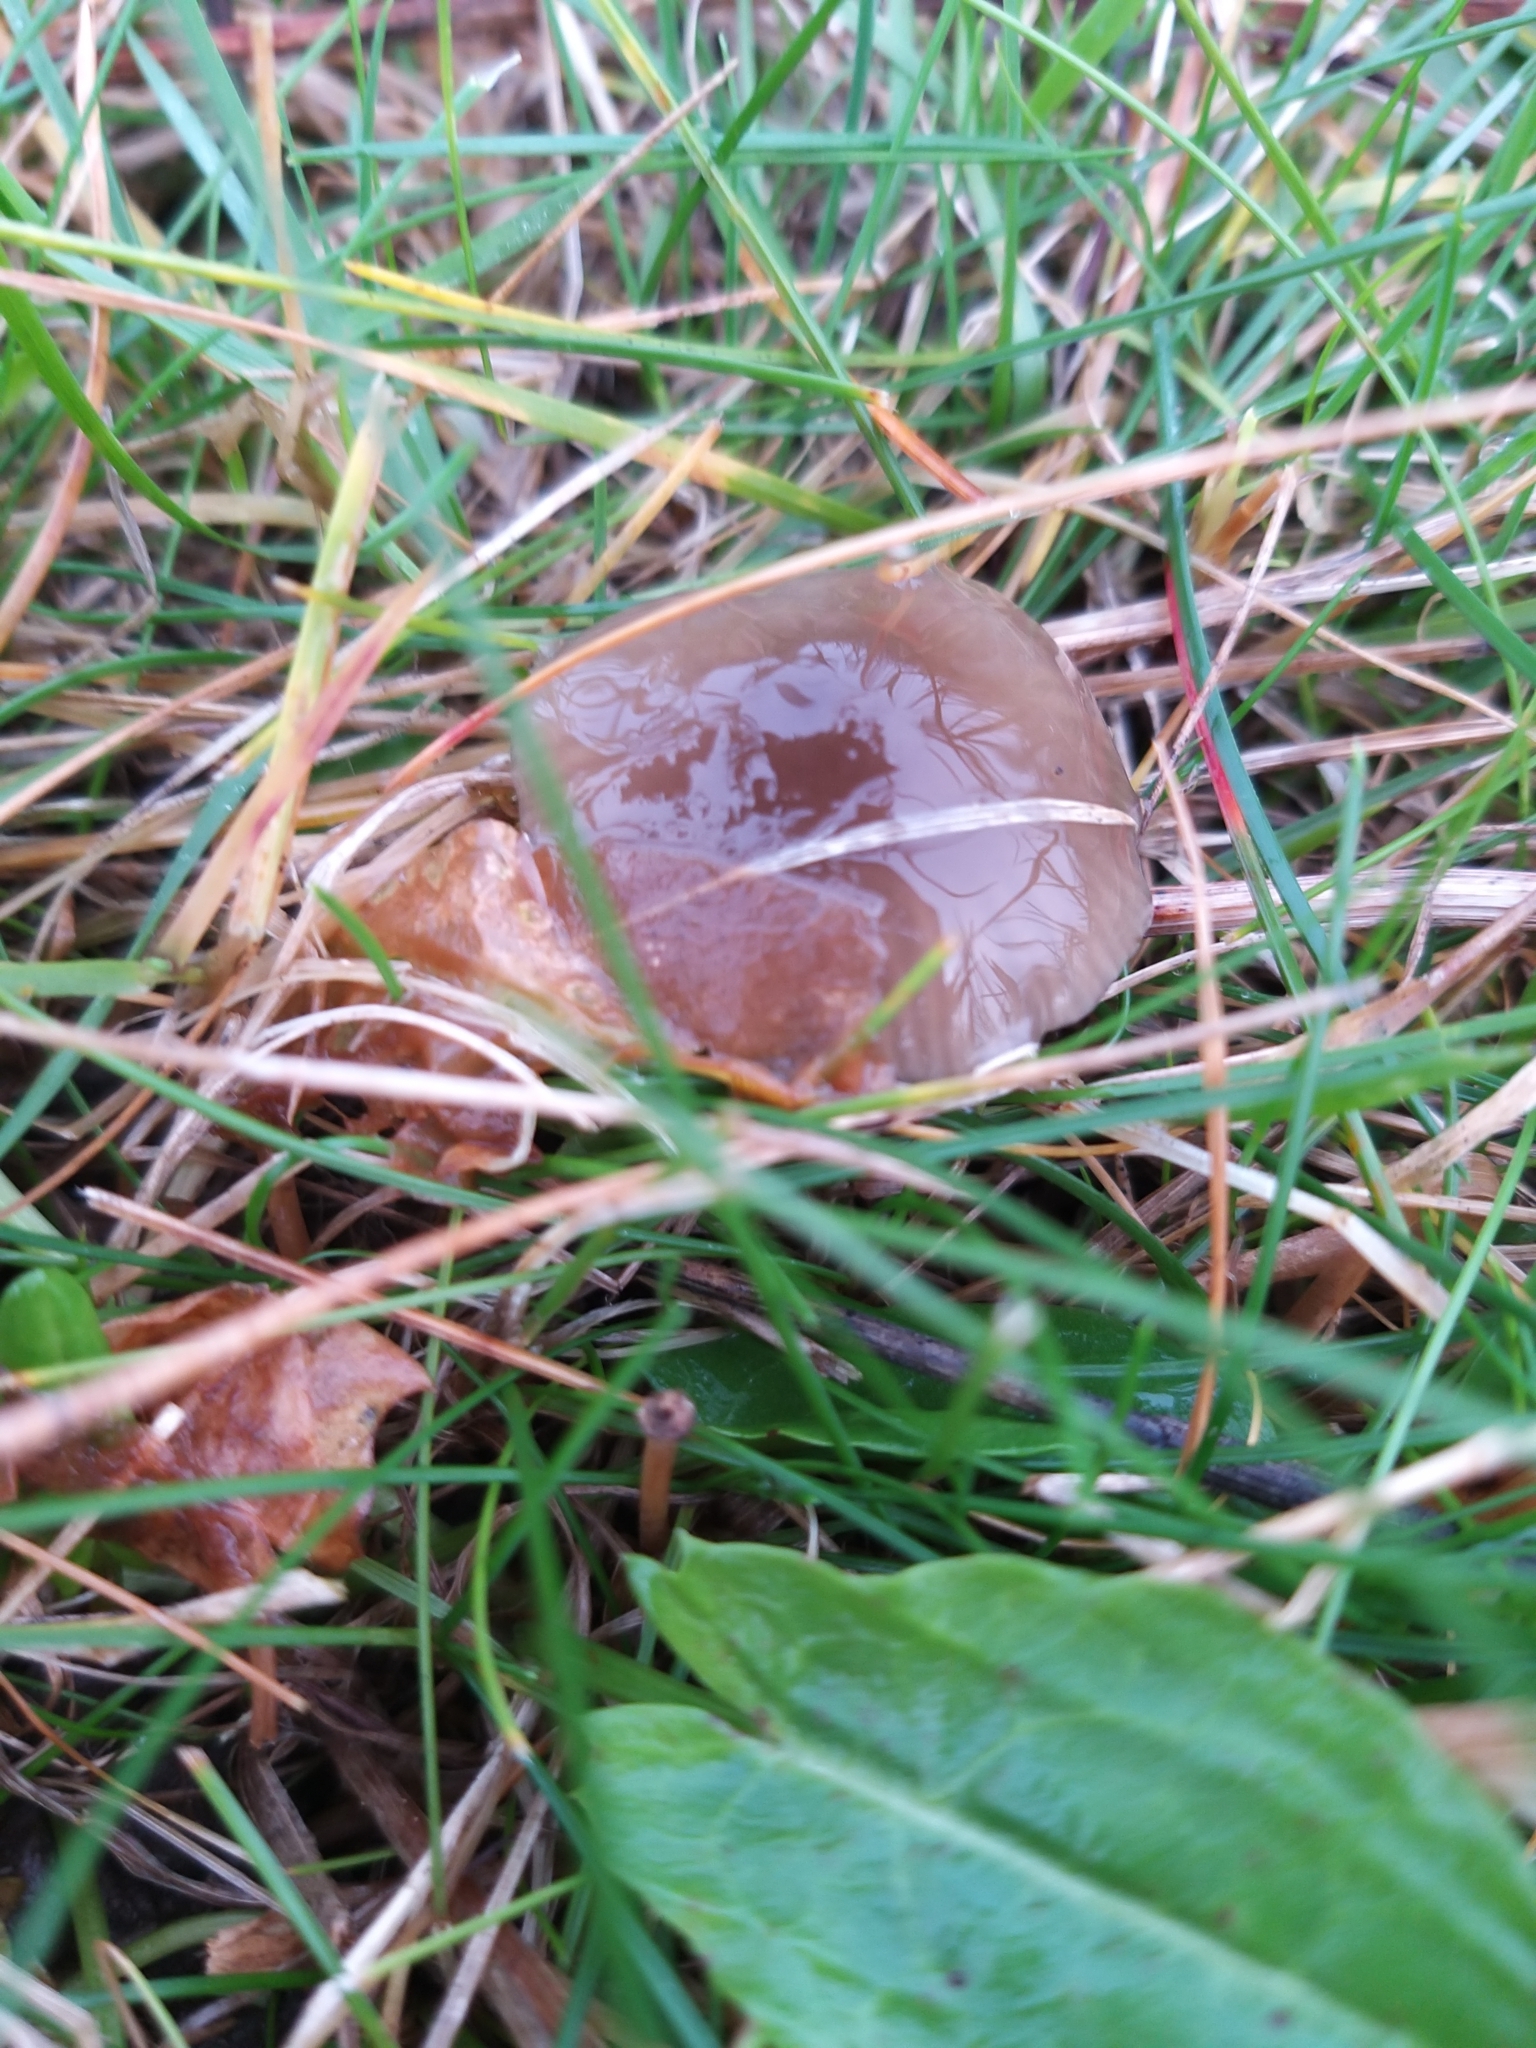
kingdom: Fungi
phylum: Basidiomycota
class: Agaricomycetes
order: Agaricales
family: Hygrophoraceae
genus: Gliophorus
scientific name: Gliophorus irrigatus
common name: Slimy waxcap
